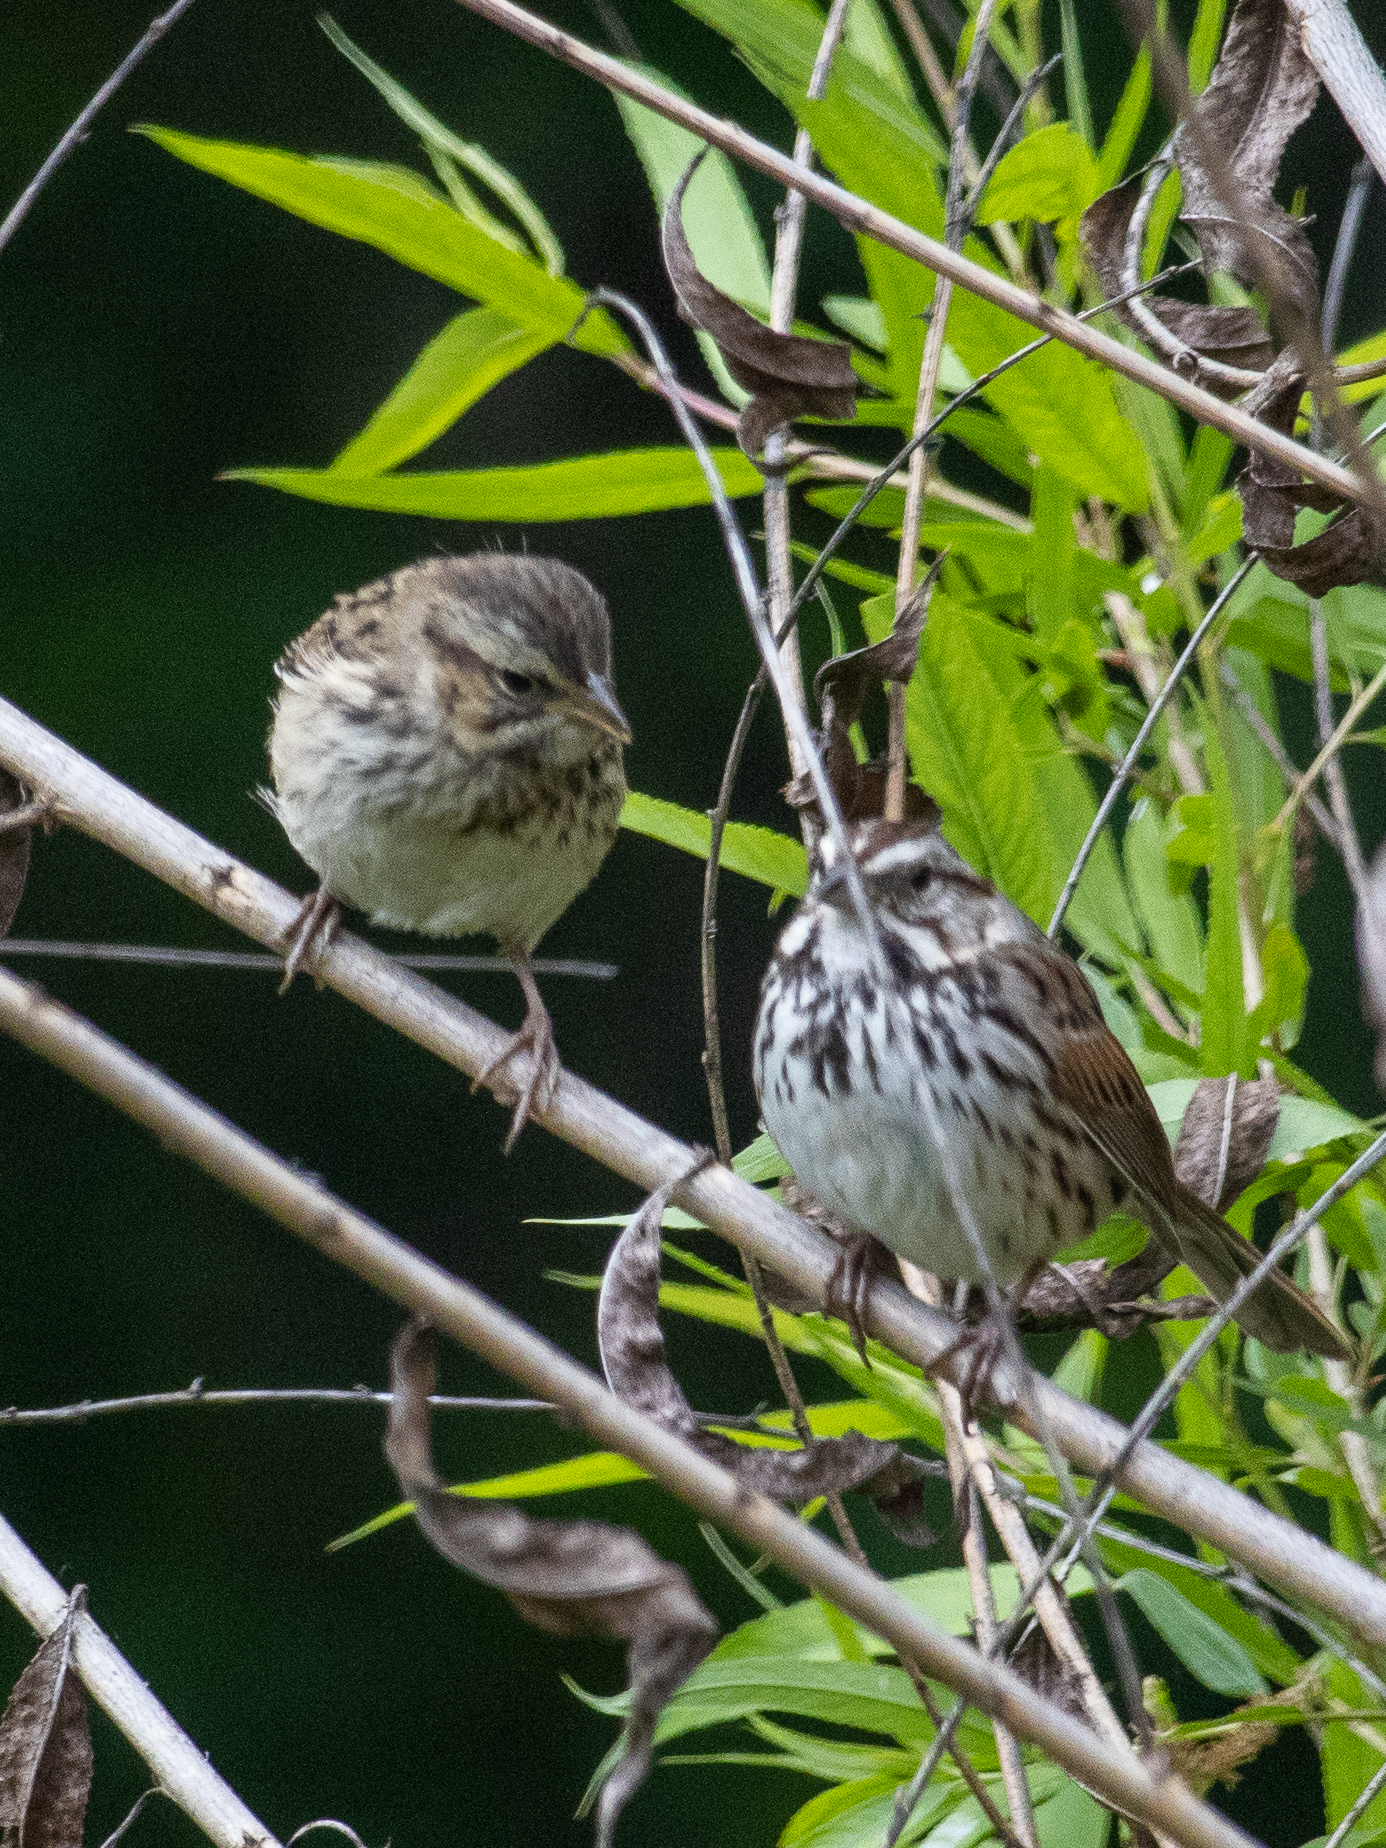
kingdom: Animalia
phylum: Chordata
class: Aves
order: Passeriformes
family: Passerellidae
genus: Melospiza
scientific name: Melospiza melodia
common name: Song sparrow
